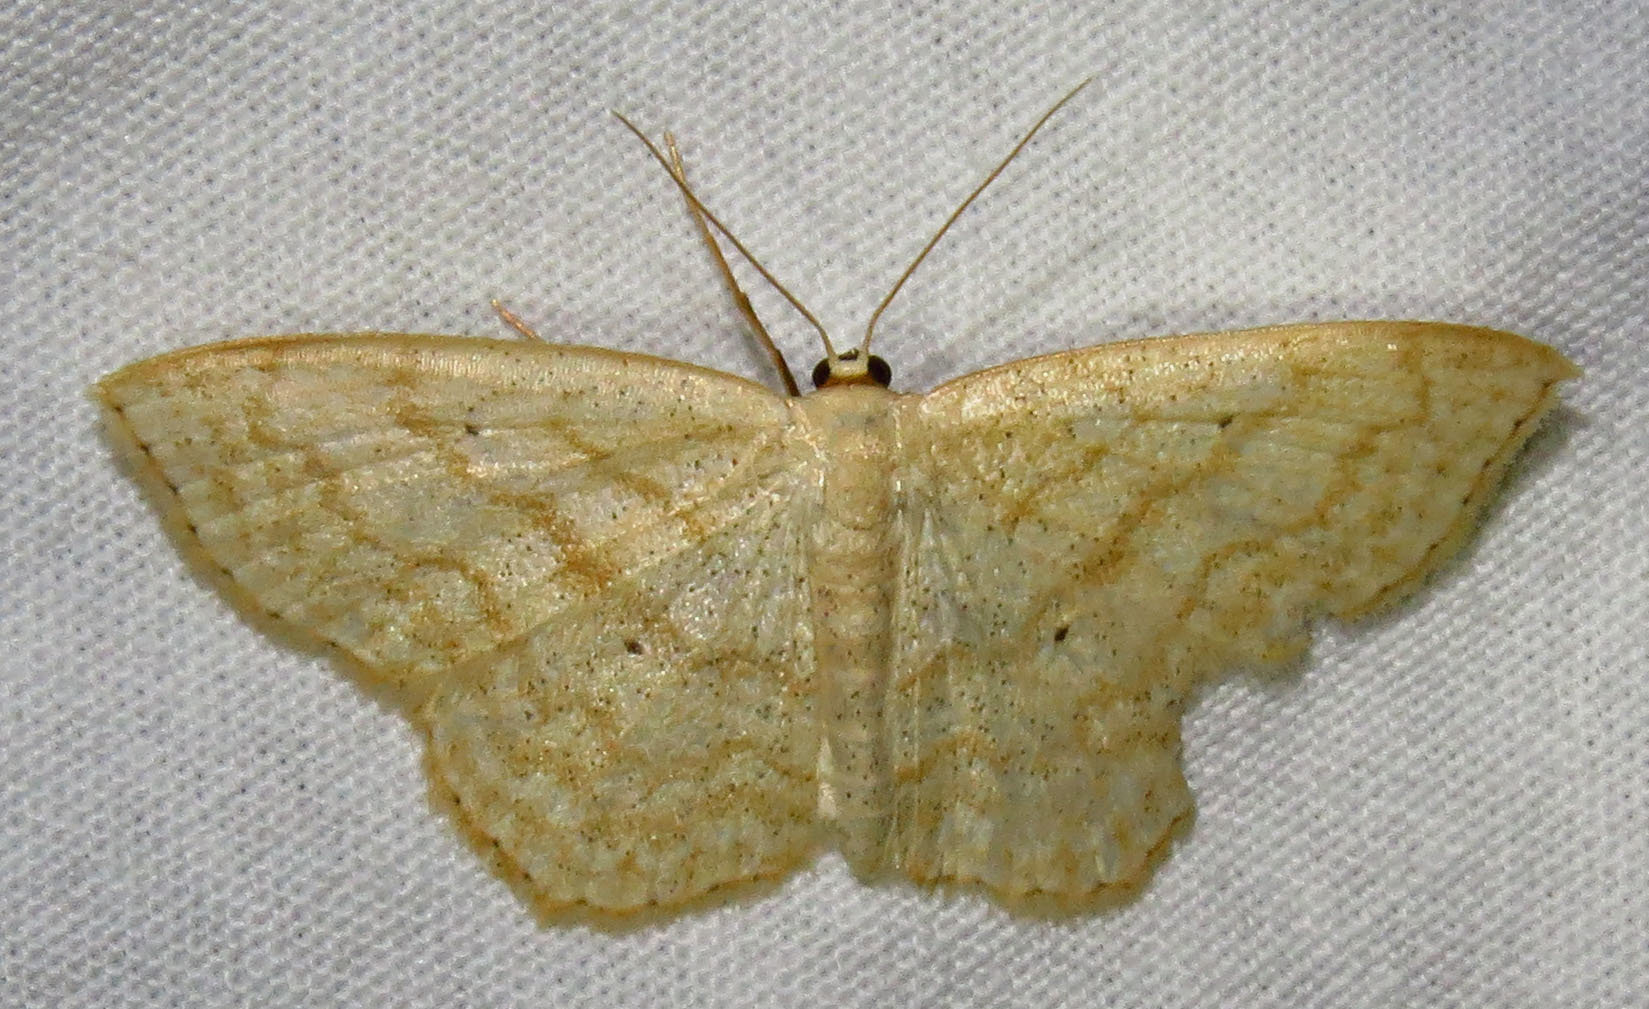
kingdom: Animalia
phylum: Arthropoda
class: Insecta
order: Lepidoptera
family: Geometridae
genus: Scopula
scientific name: Scopula limboundata
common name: Large lace border
